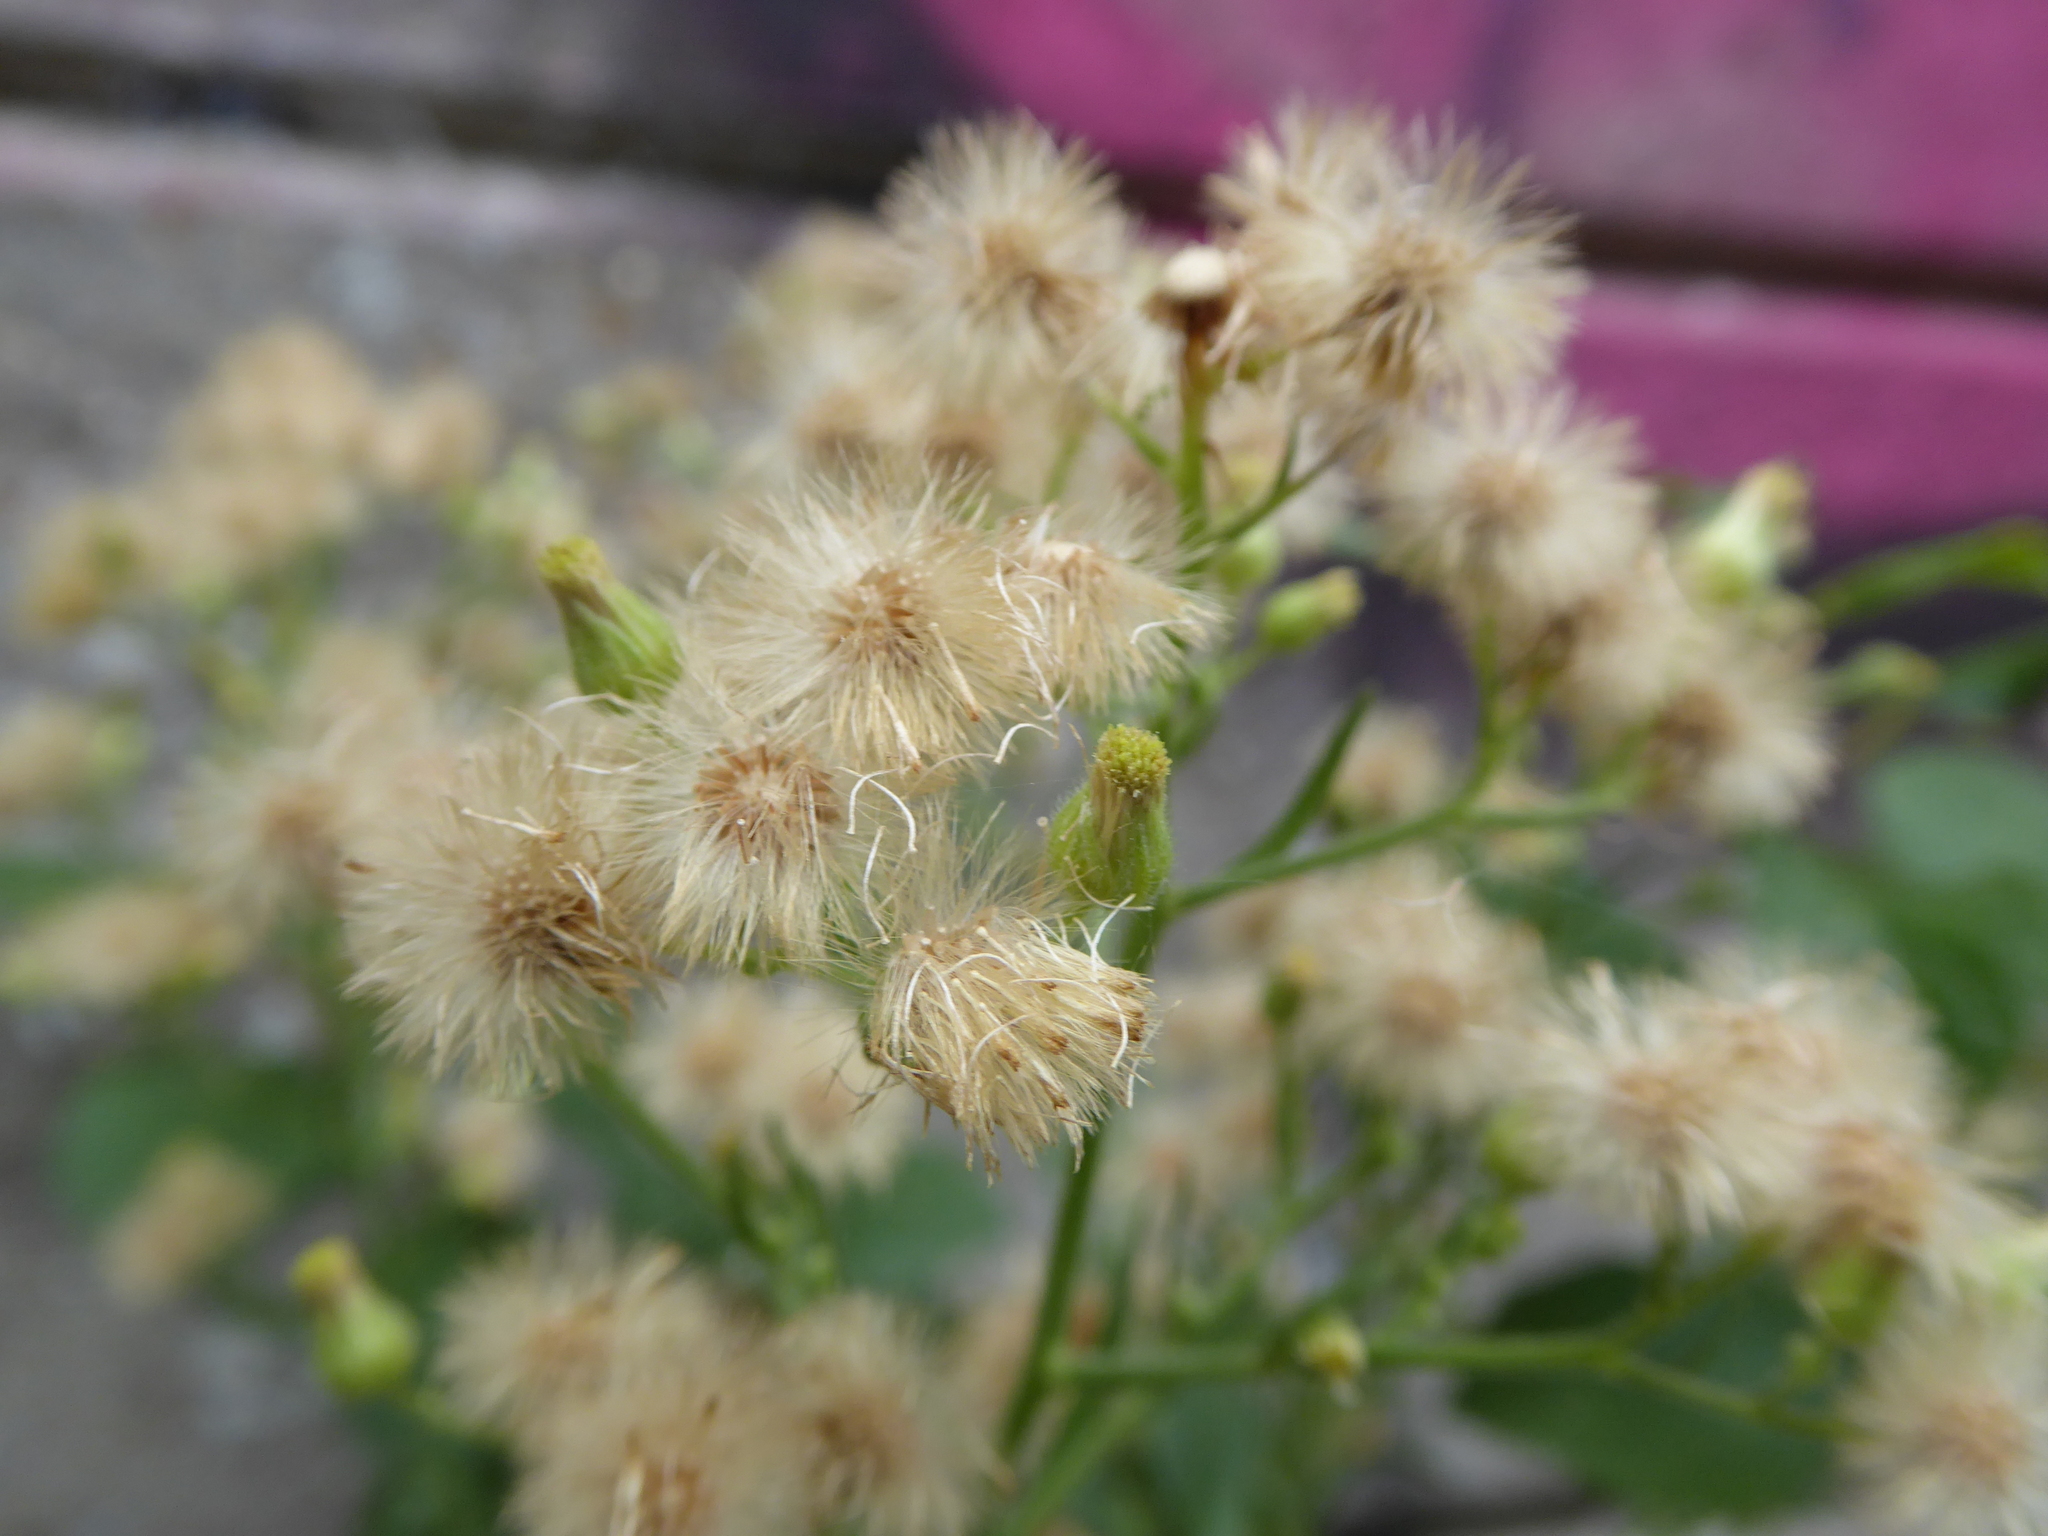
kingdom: Plantae
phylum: Tracheophyta
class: Magnoliopsida
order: Asterales
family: Asteraceae
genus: Erigeron
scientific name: Erigeron sumatrensis
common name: Daisy
